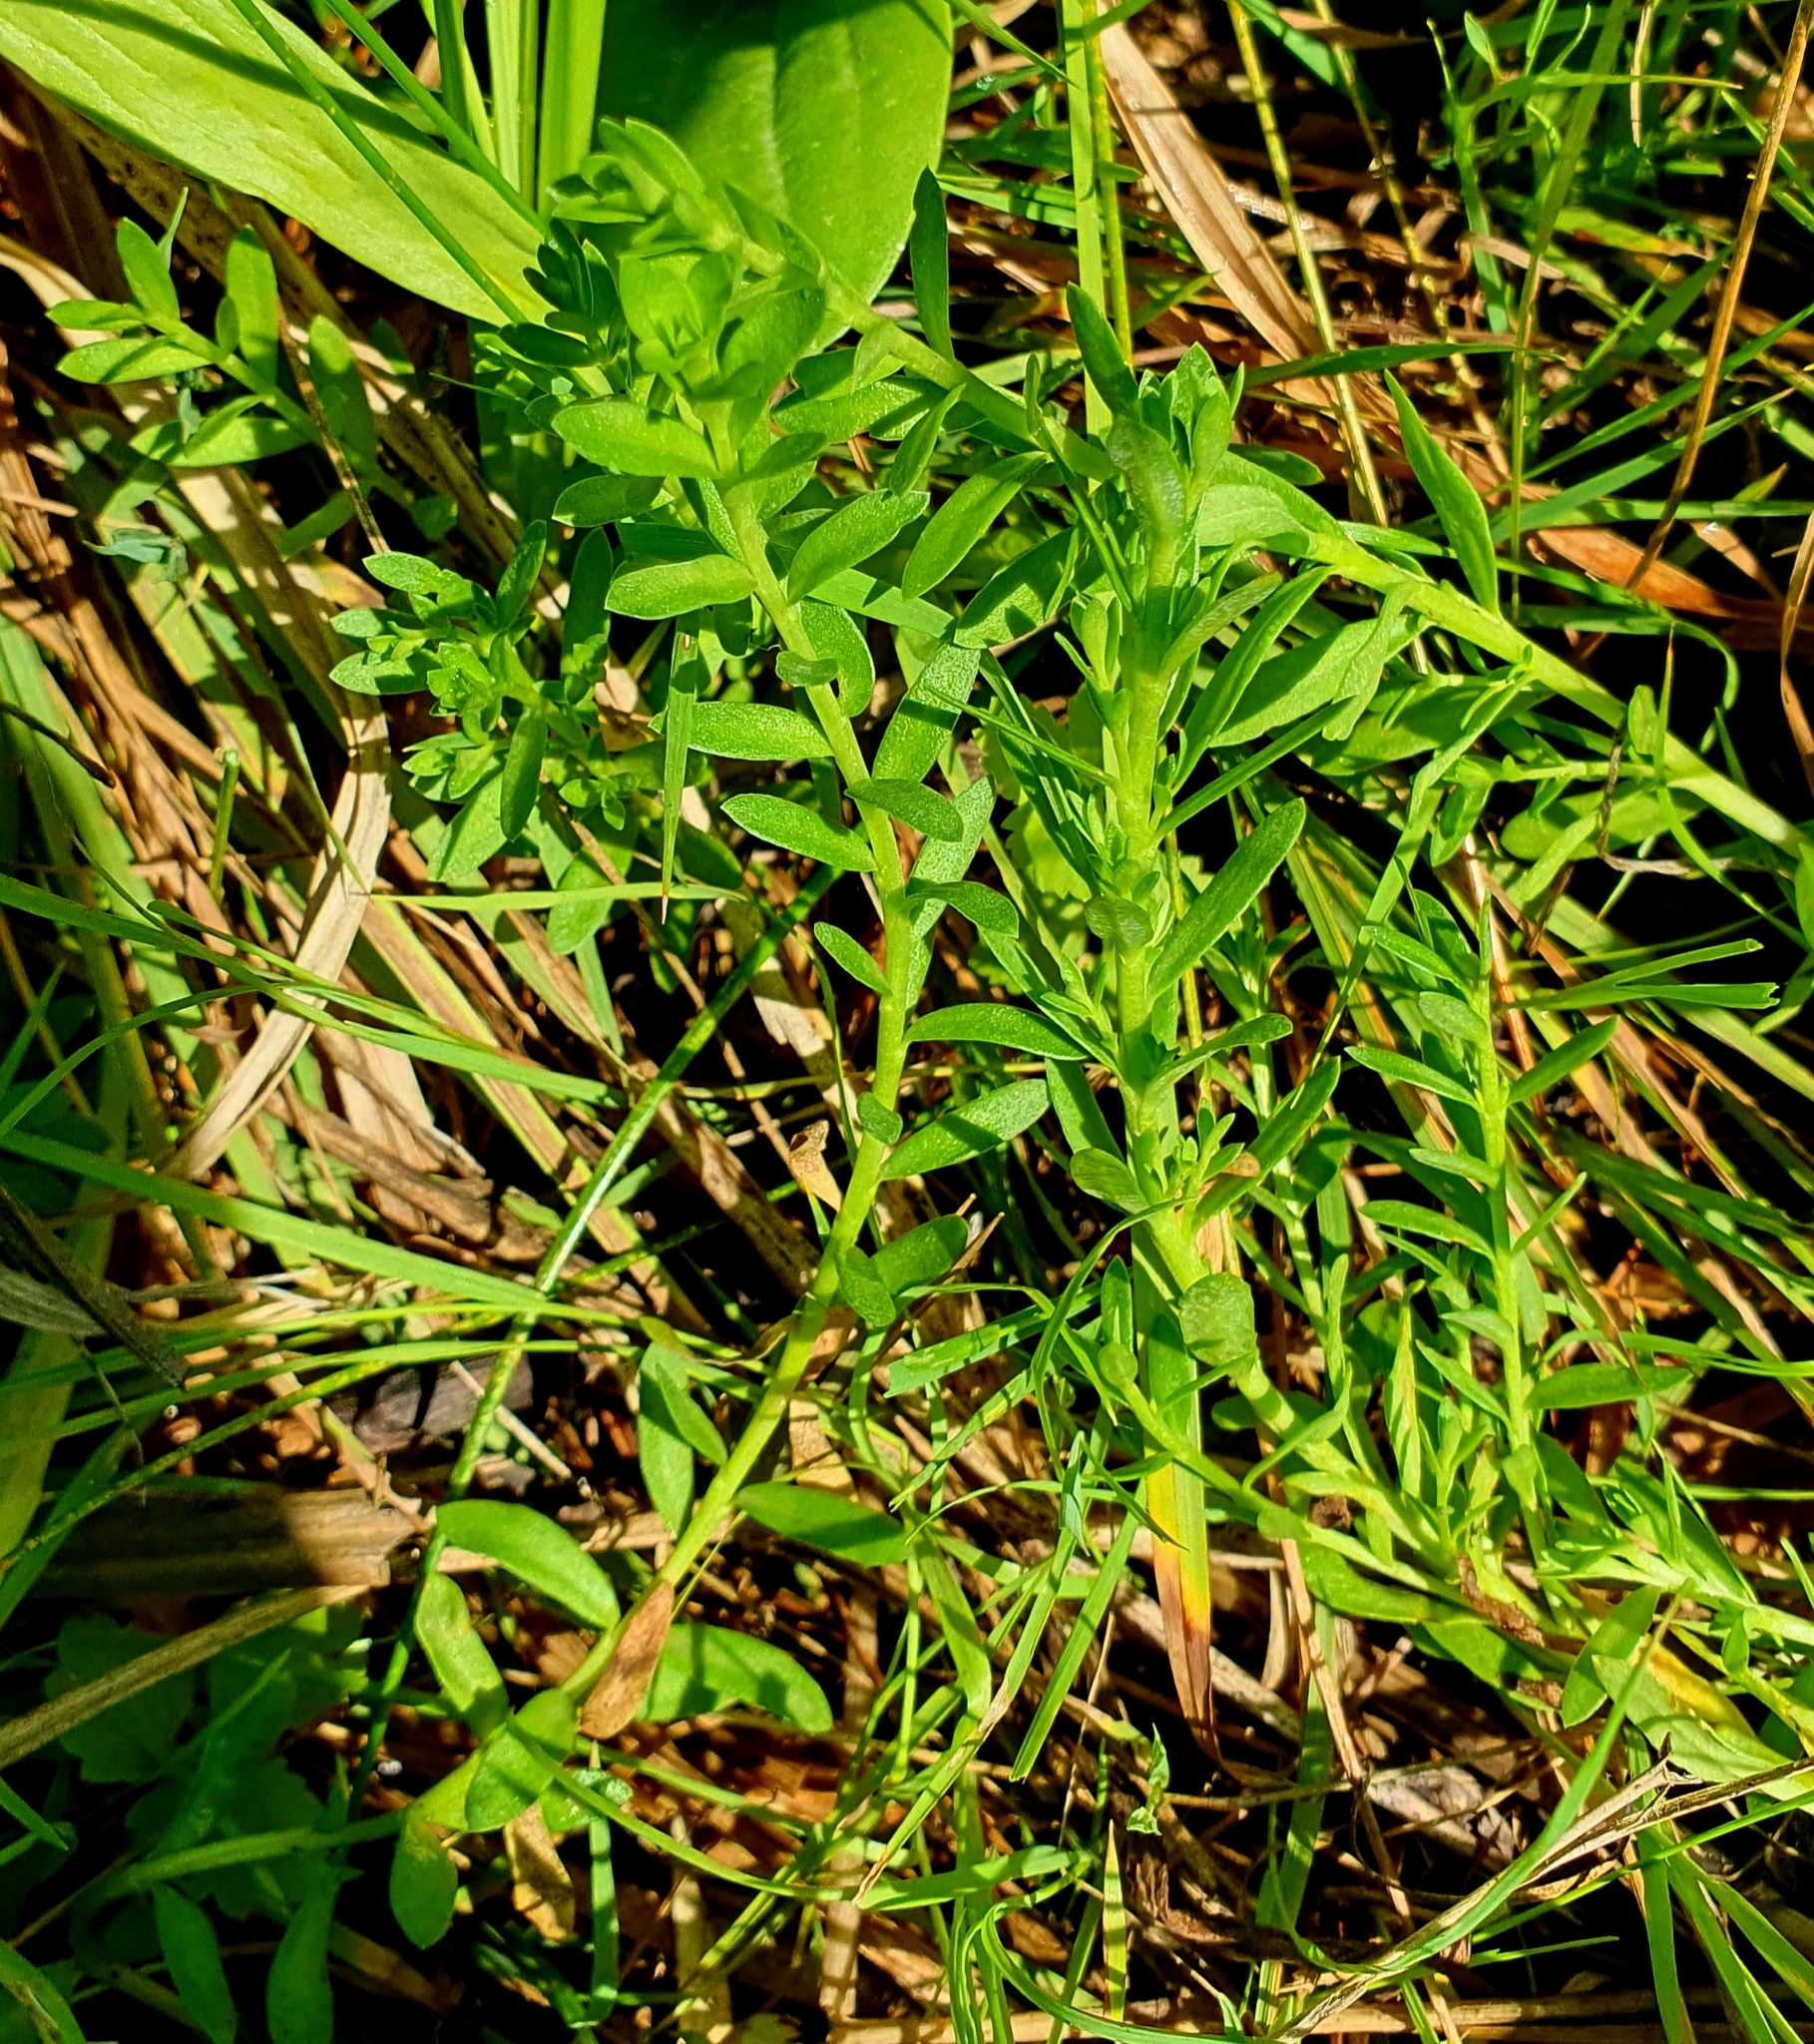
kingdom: Plantae
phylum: Tracheophyta
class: Magnoliopsida
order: Ericales
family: Primulaceae
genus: Lysimachia
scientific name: Lysimachia maritima
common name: Sea milkwort
